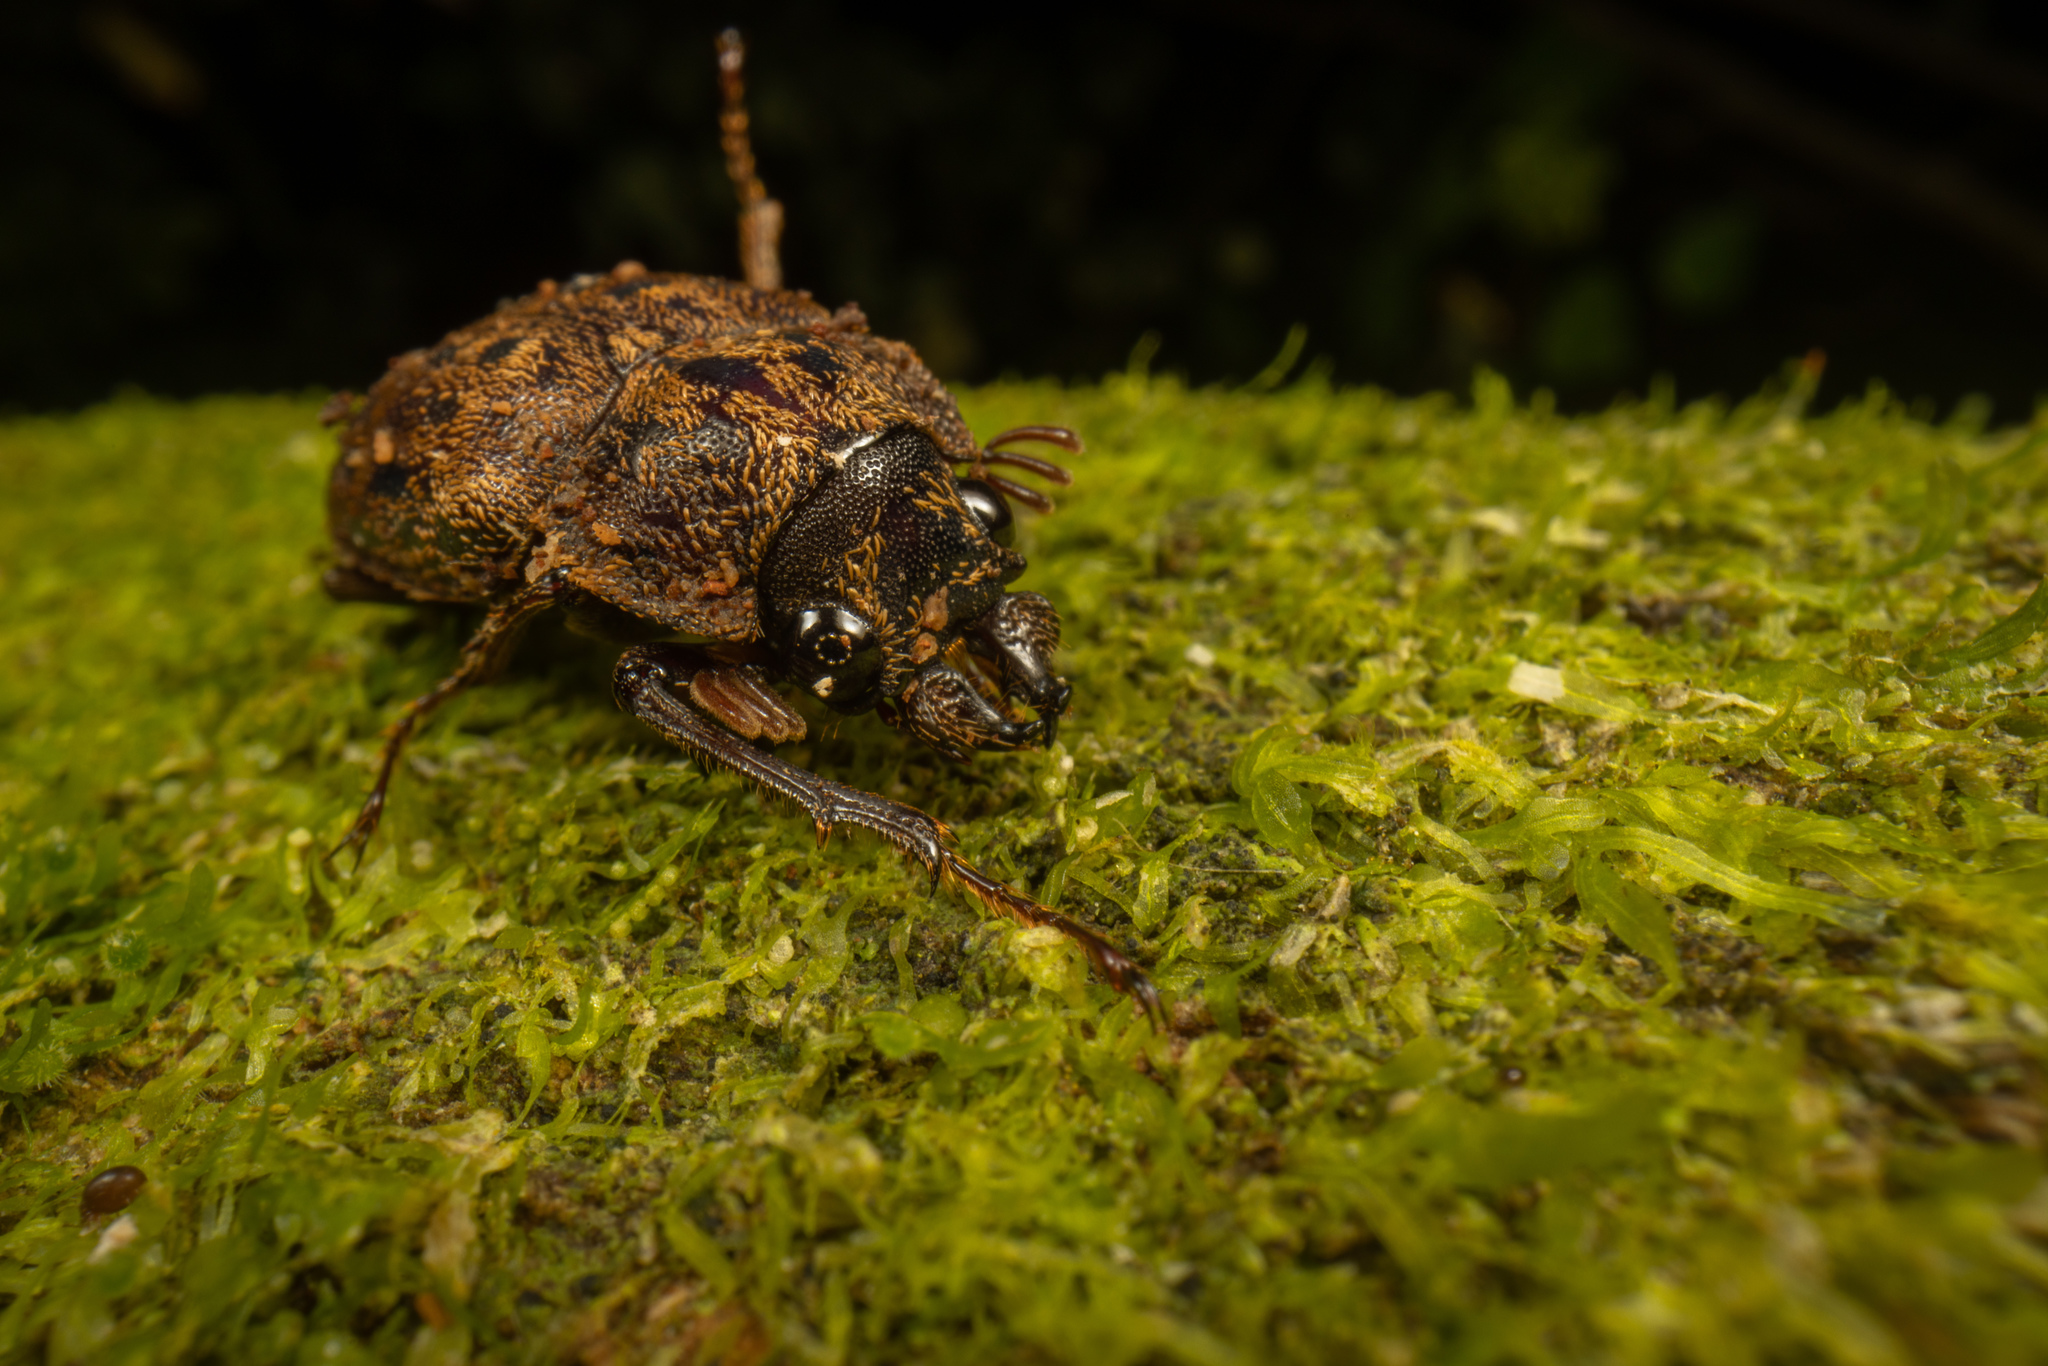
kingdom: Animalia
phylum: Arthropoda
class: Insecta
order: Coleoptera
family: Lucanidae
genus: Mitophyllus
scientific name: Mitophyllus parrianus
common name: Parry's stag beetle
